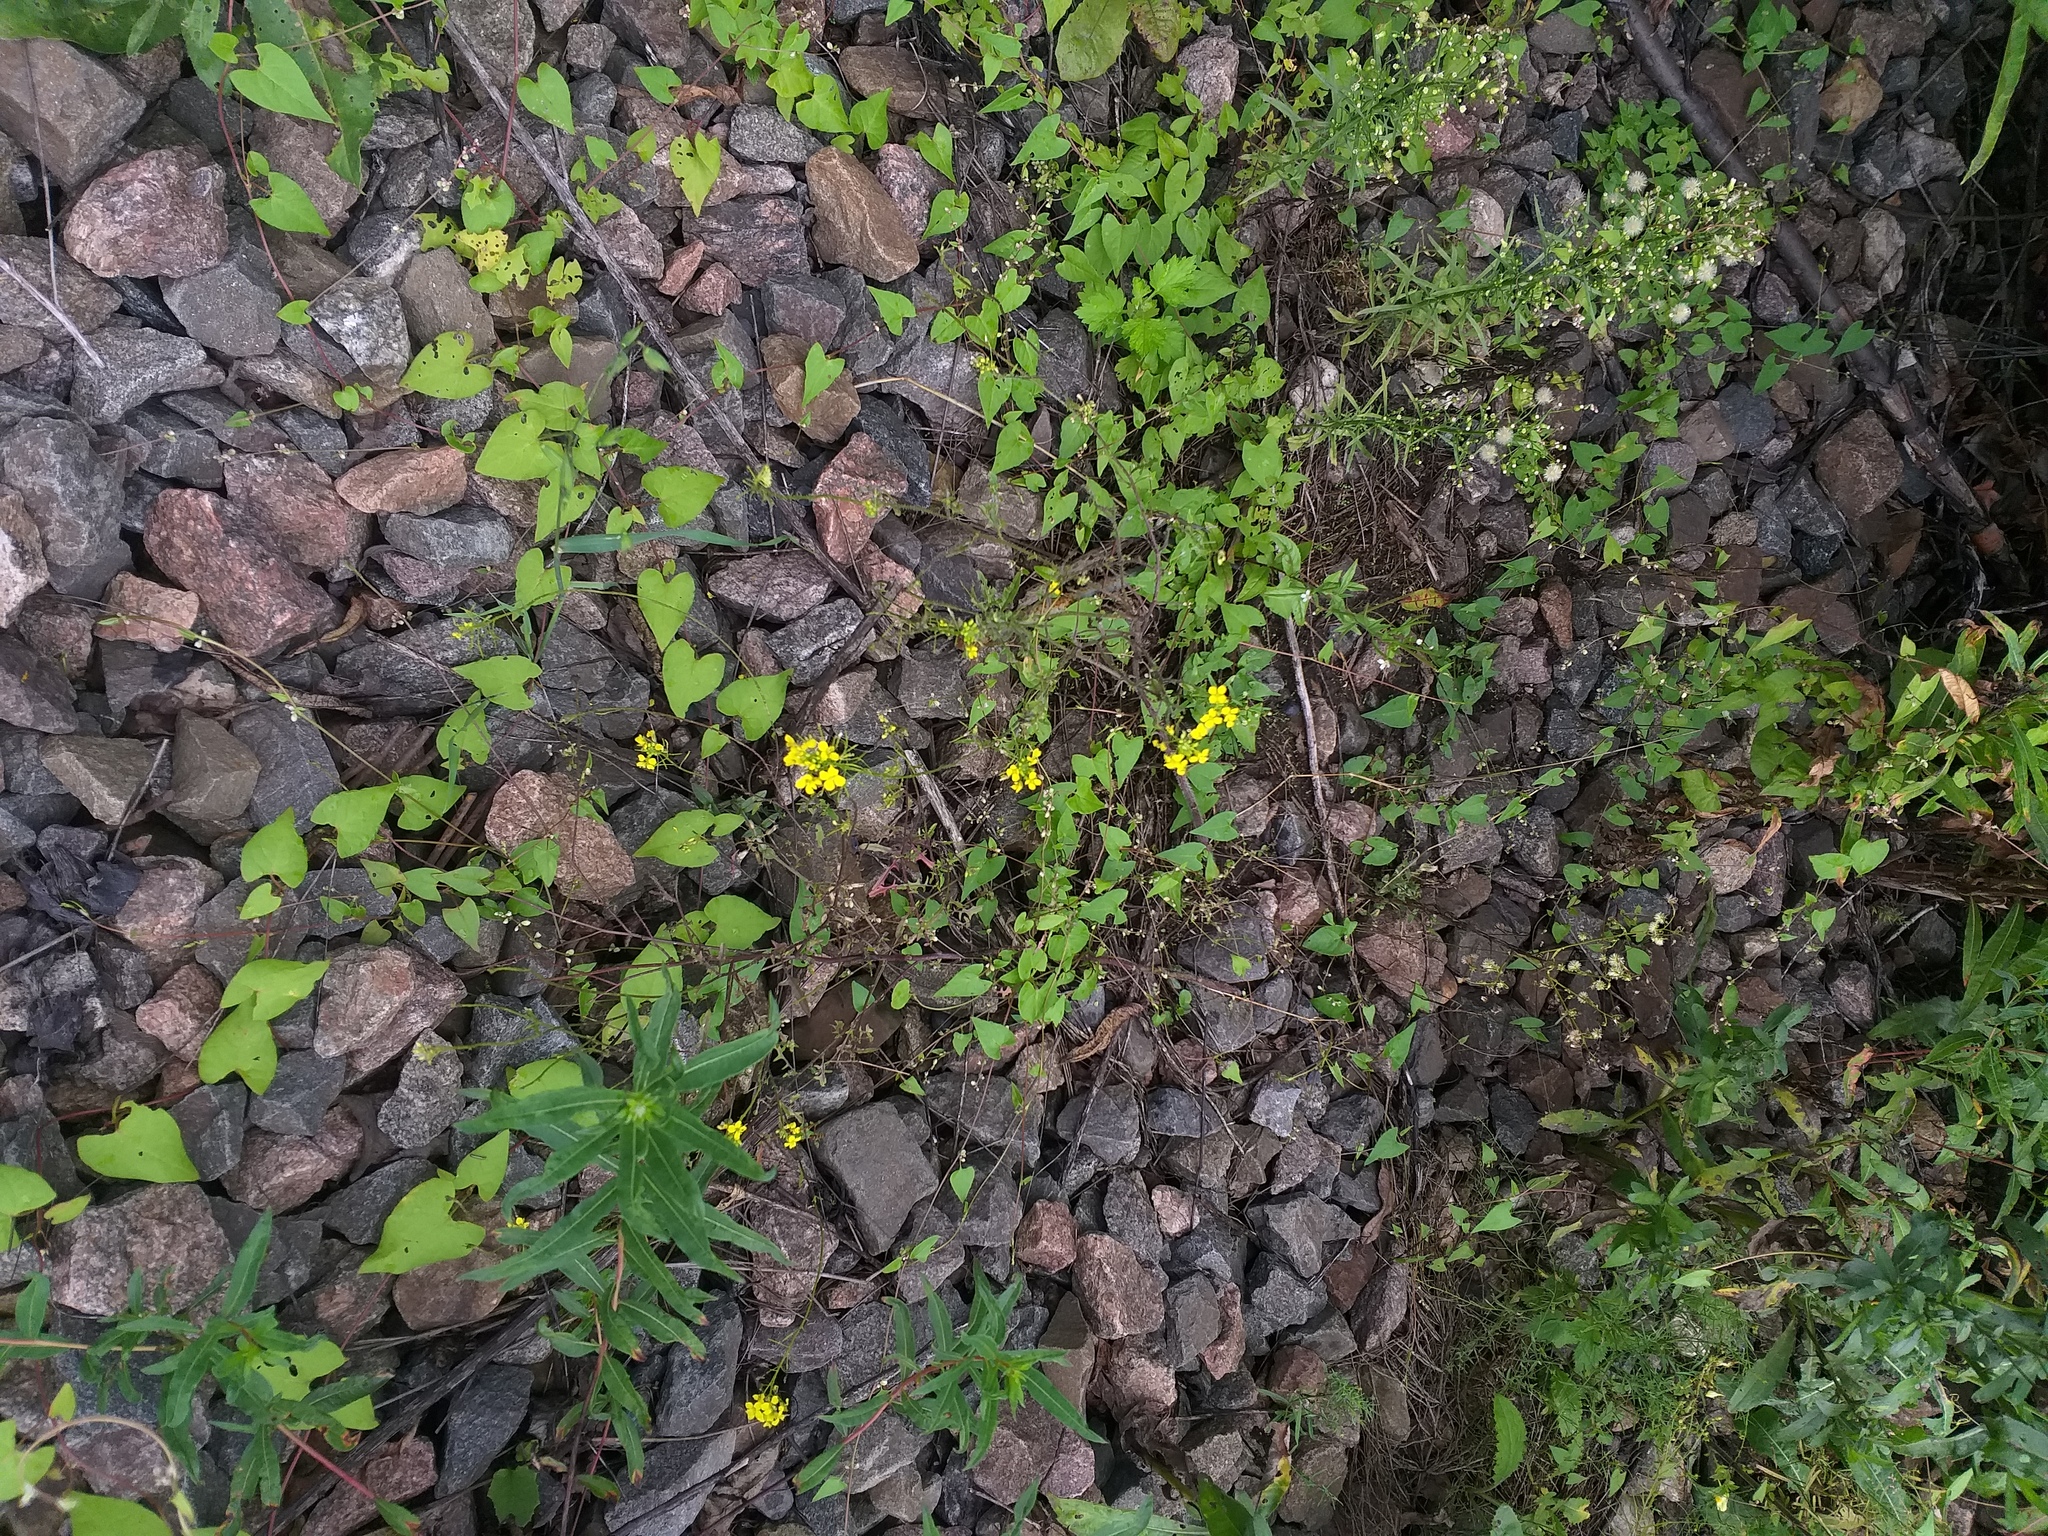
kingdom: Plantae
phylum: Tracheophyta
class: Magnoliopsida
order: Brassicales
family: Brassicaceae
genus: Sisymbrium
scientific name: Sisymbrium loeselii
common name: False london-rocket
